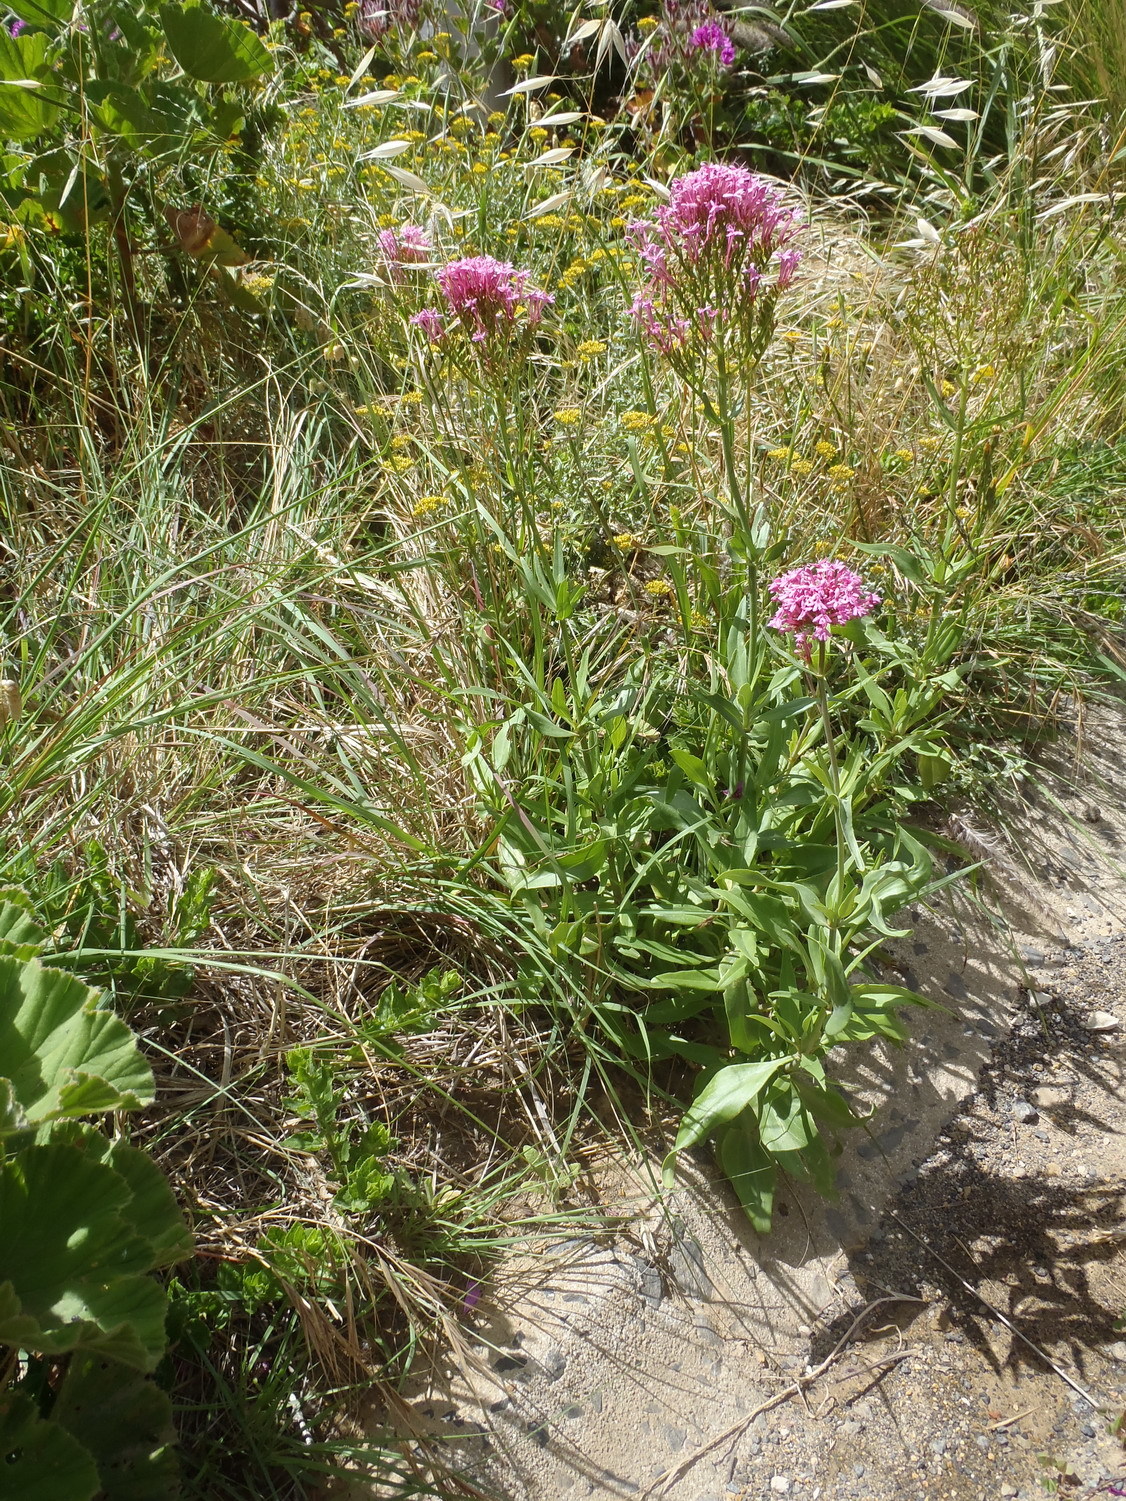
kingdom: Plantae
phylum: Tracheophyta
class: Magnoliopsida
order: Dipsacales
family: Caprifoliaceae
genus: Centranthus
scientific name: Centranthus ruber
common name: Red valerian
